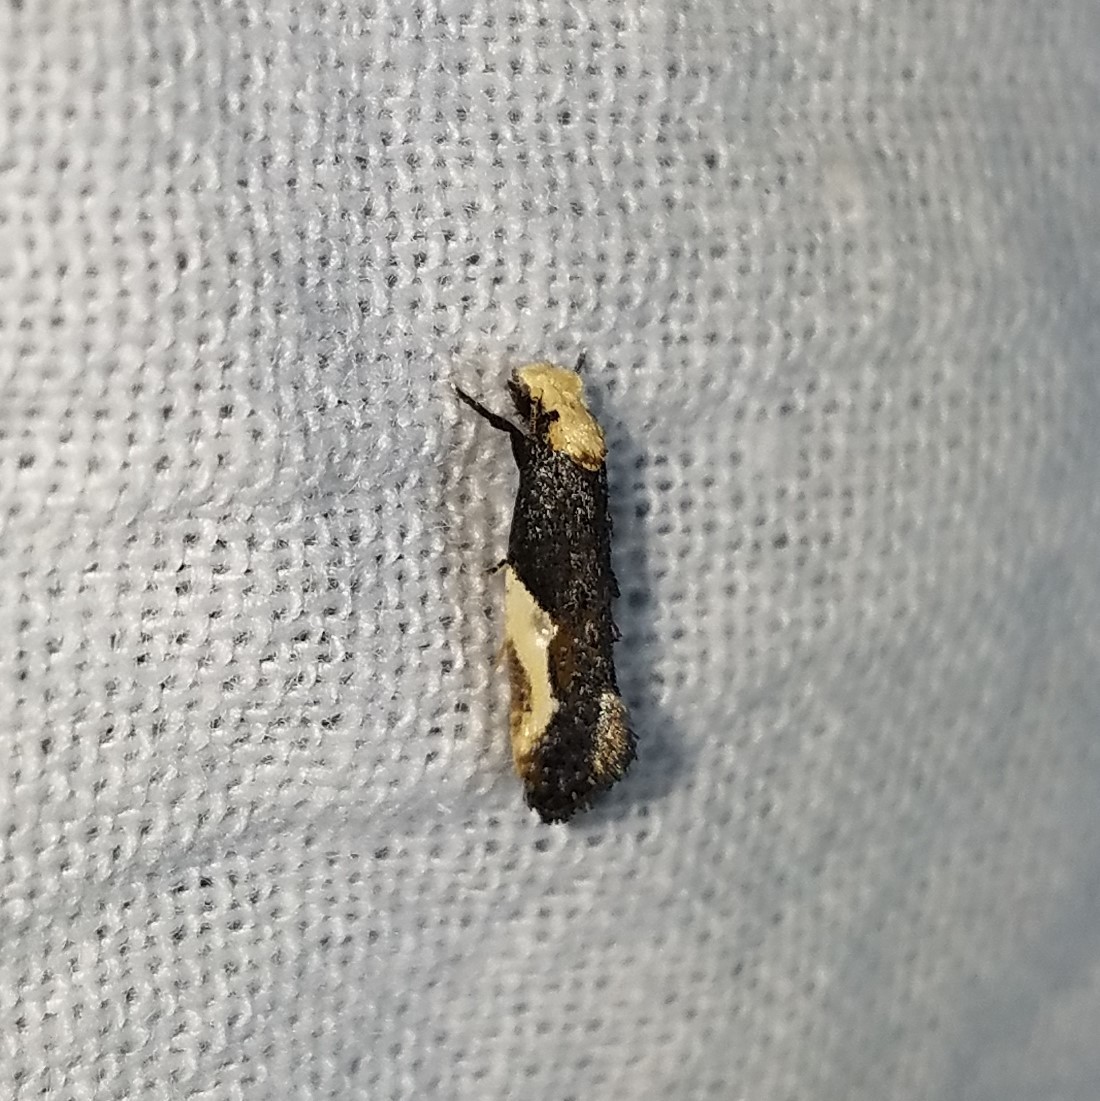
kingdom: Animalia
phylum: Arthropoda
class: Insecta
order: Lepidoptera
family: Tineidae
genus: Monopis
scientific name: Monopis longella
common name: Pavlovski's monopis moth
